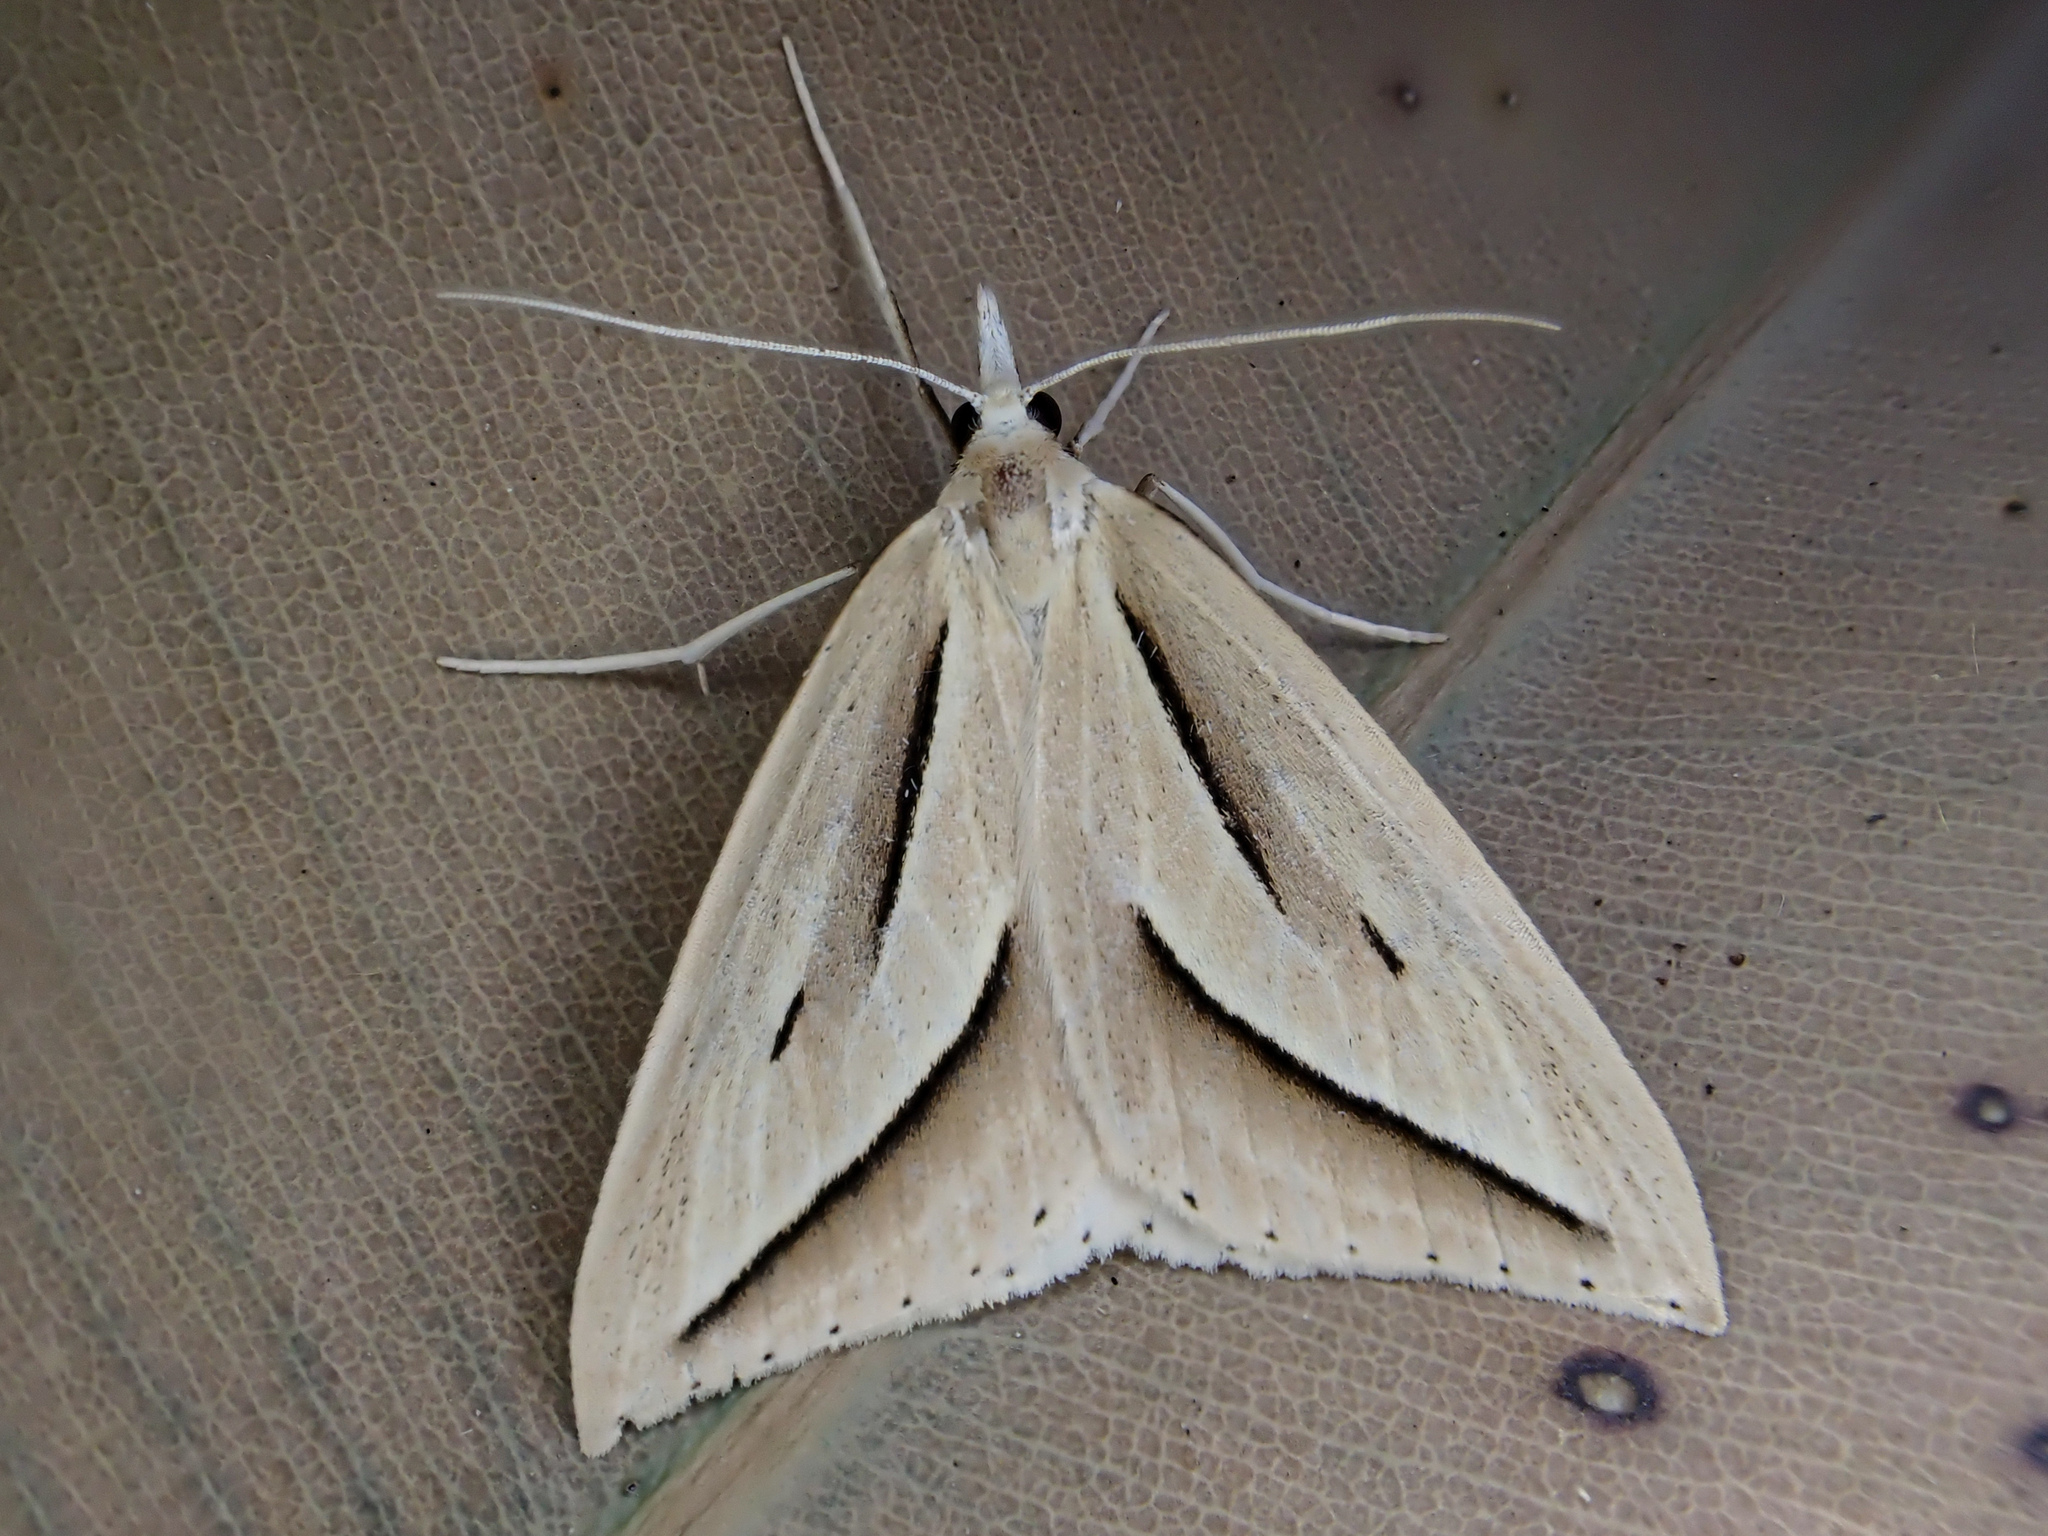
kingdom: Animalia
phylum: Arthropoda
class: Insecta
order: Lepidoptera
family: Geometridae
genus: Samana
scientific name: Samana falcatella
